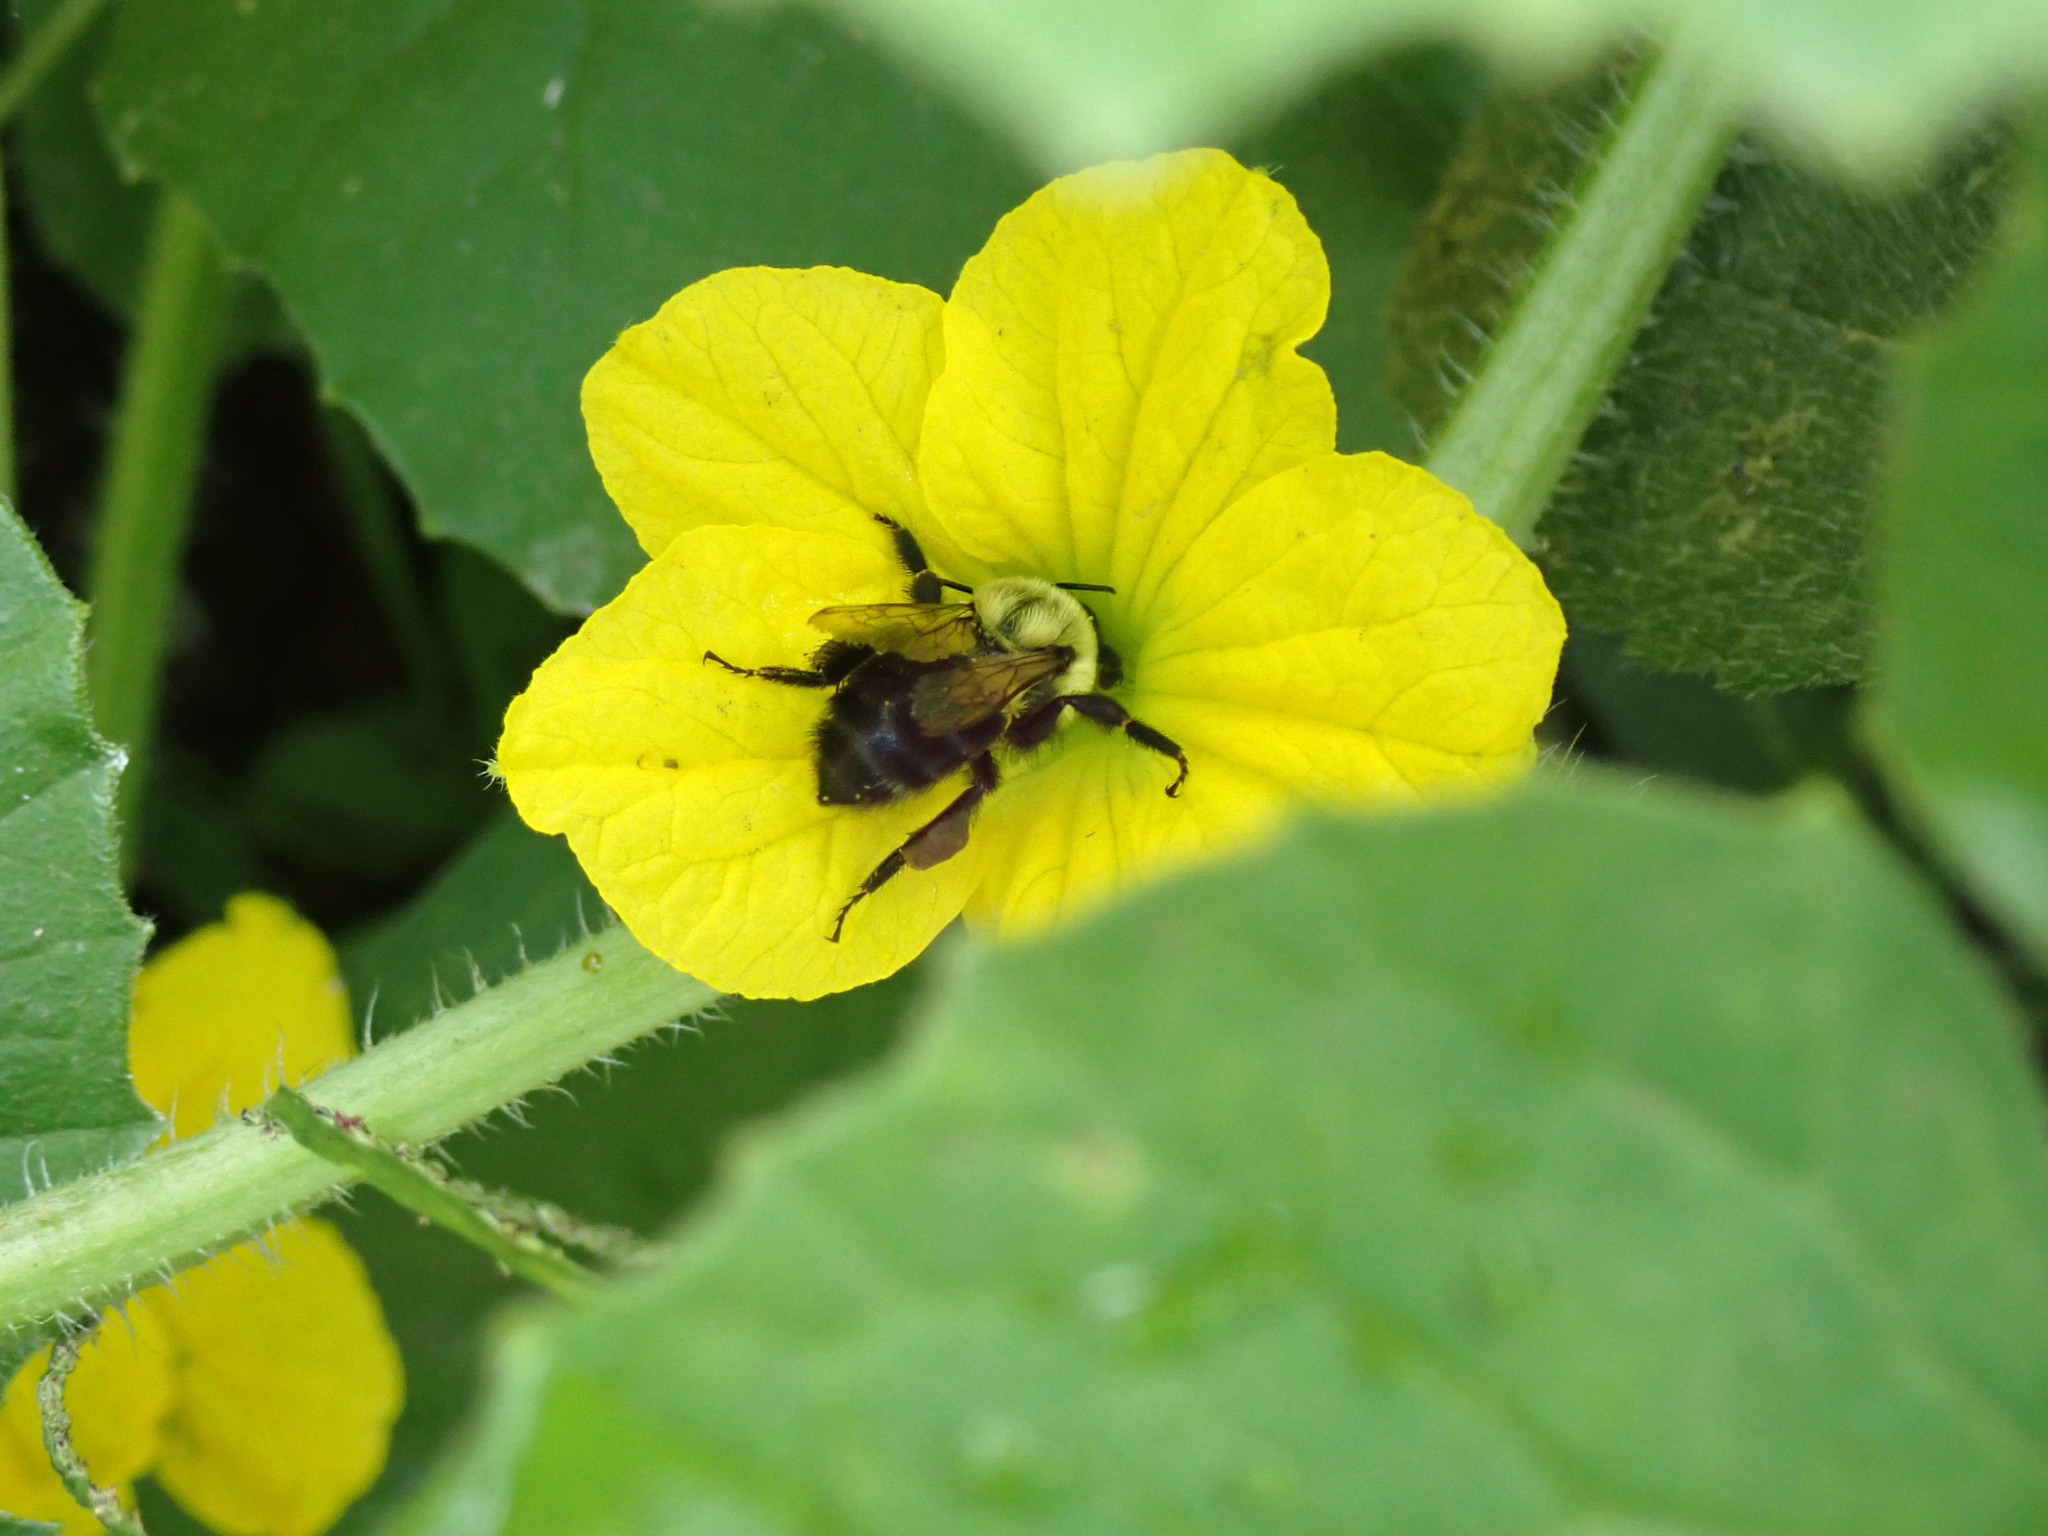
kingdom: Animalia
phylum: Arthropoda
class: Insecta
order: Hymenoptera
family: Apidae
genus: Bombus
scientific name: Bombus impatiens
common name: Common eastern bumble bee
